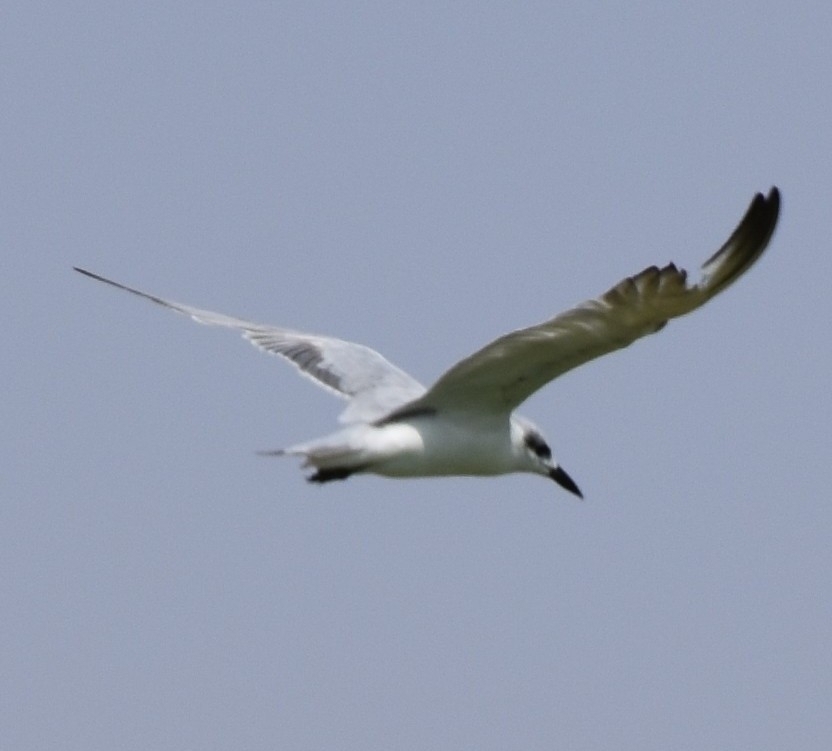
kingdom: Animalia
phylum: Chordata
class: Aves
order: Charadriiformes
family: Laridae
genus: Gelochelidon
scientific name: Gelochelidon nilotica
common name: Gull-billed tern
